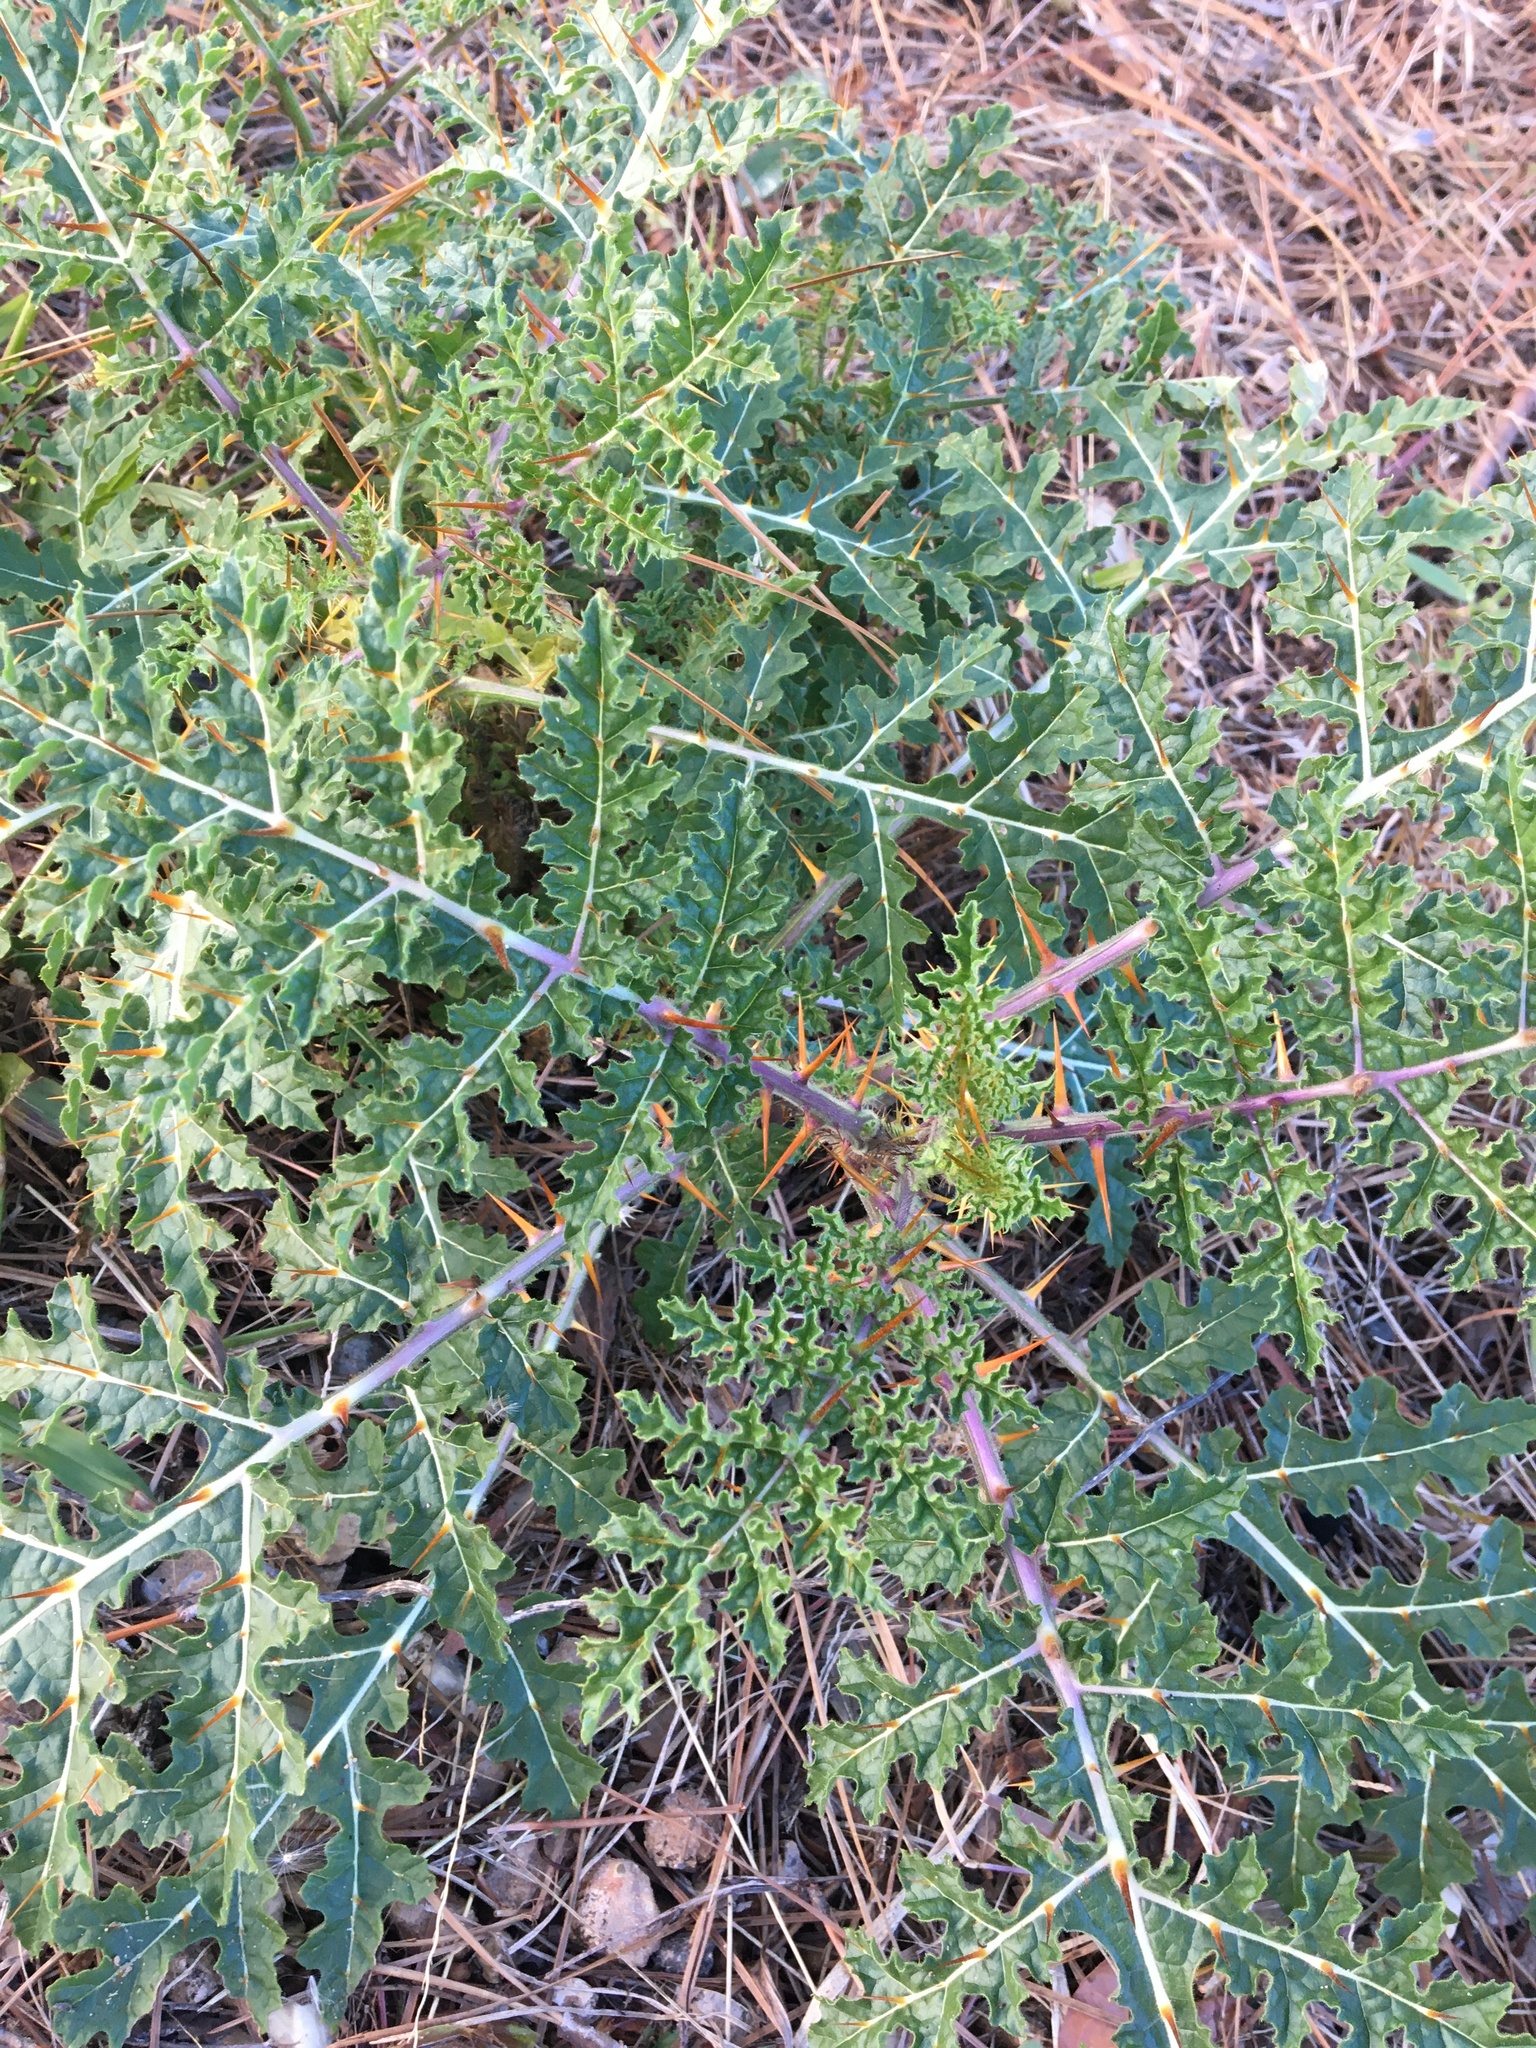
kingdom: Plantae
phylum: Tracheophyta
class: Magnoliopsida
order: Solanales
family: Solanaceae
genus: Solanum
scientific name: Solanum sisymbriifolium
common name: Red buffalo-bur
